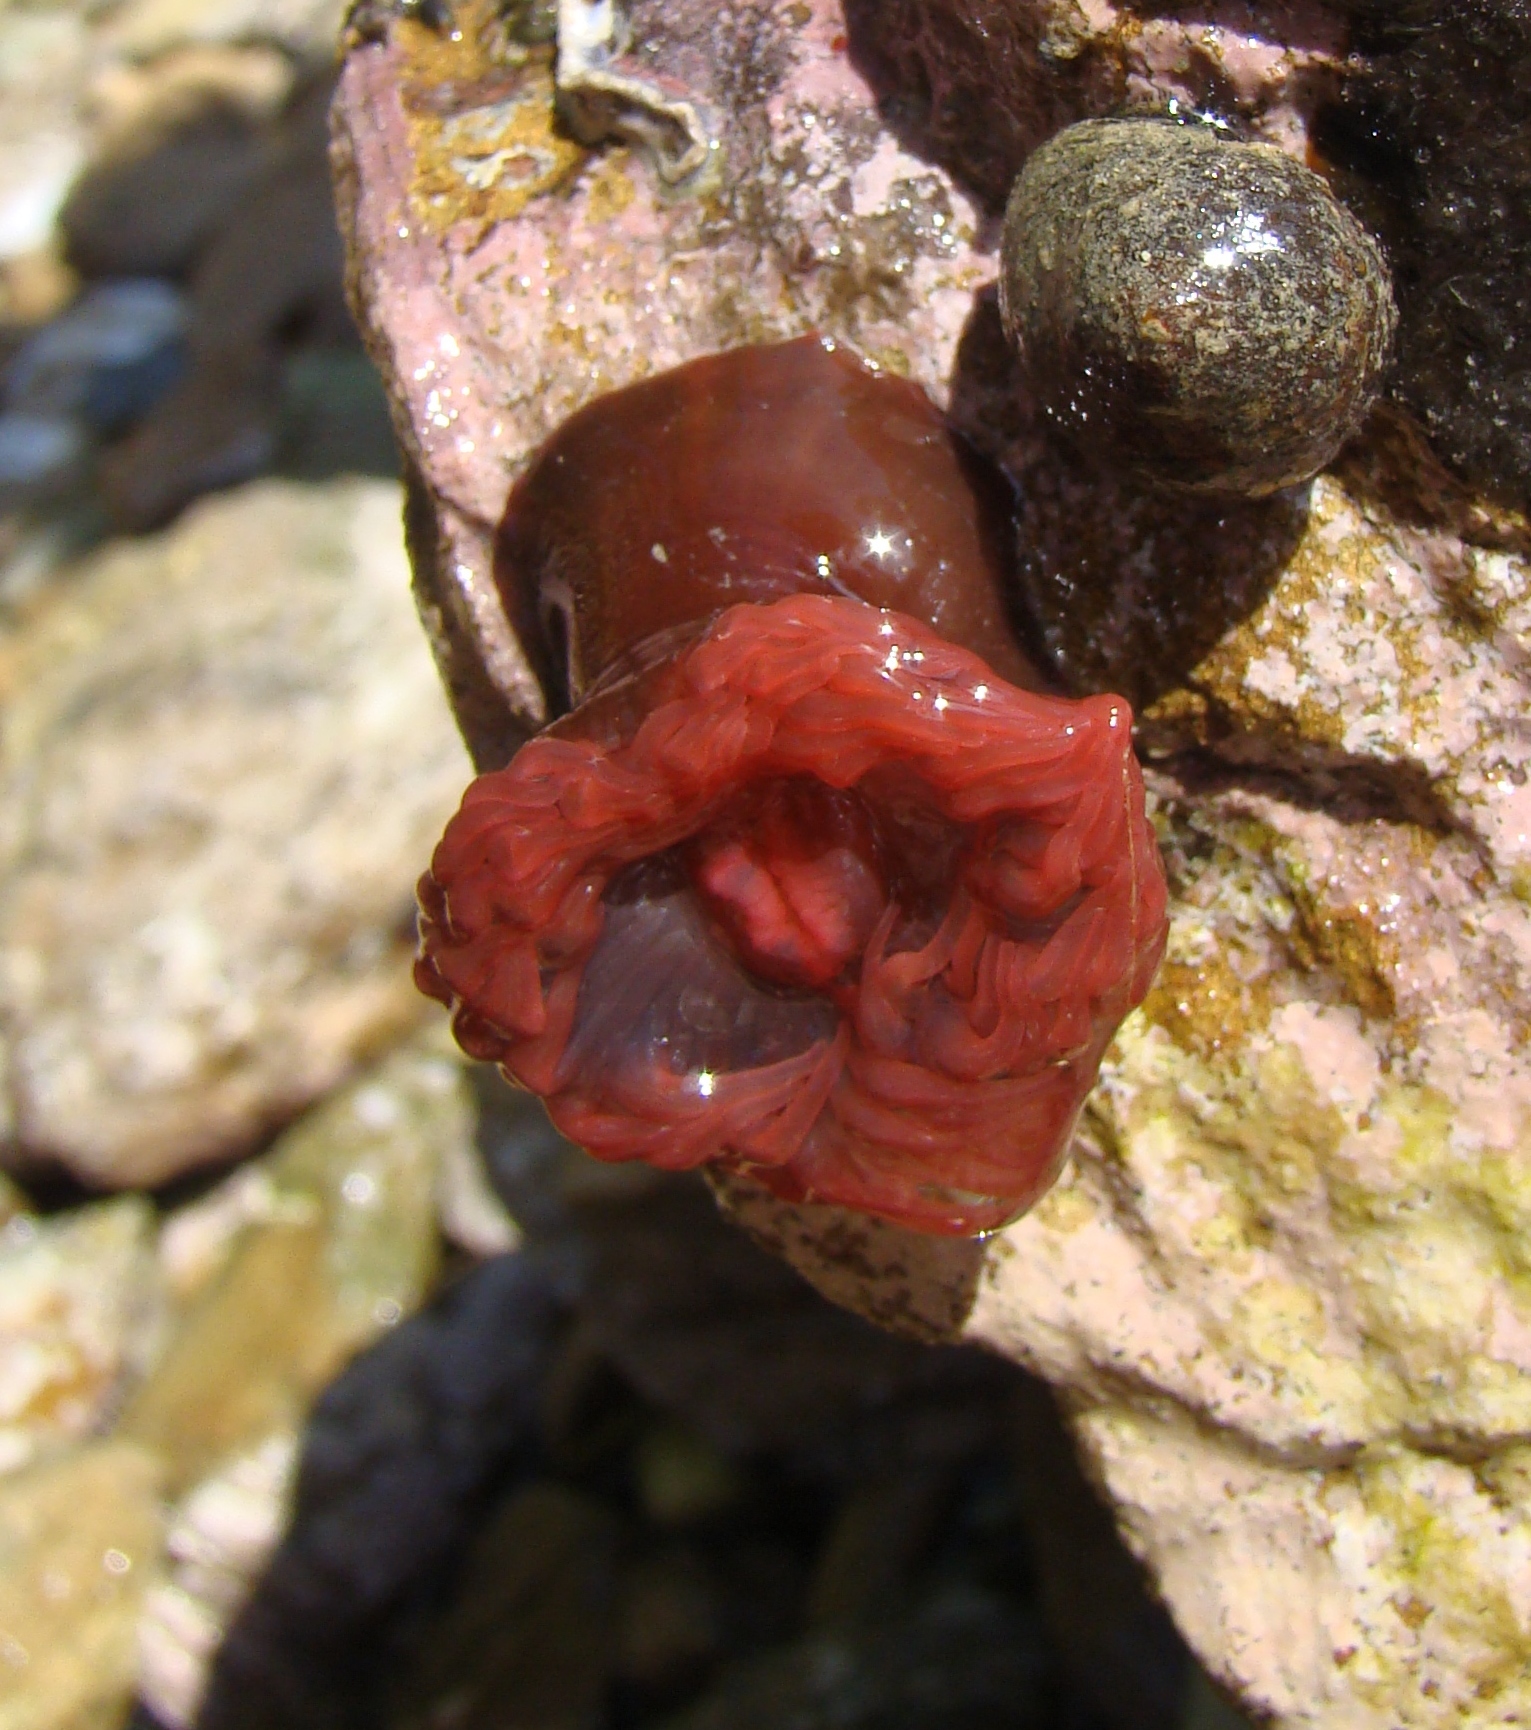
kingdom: Animalia
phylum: Cnidaria
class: Anthozoa
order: Actiniaria
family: Actiniidae
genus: Actinia
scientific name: Actinia tenebrosa
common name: Waratah anemone
